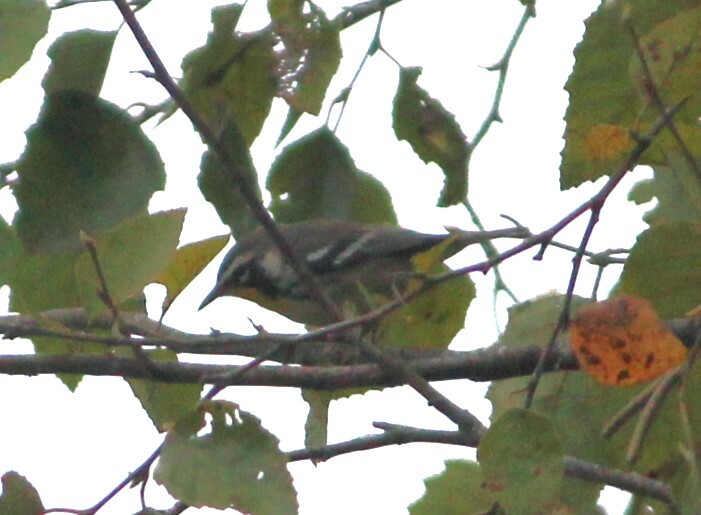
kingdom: Animalia
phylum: Chordata
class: Aves
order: Passeriformes
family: Parulidae
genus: Setophaga
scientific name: Setophaga dominica
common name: Yellow-throated warbler
